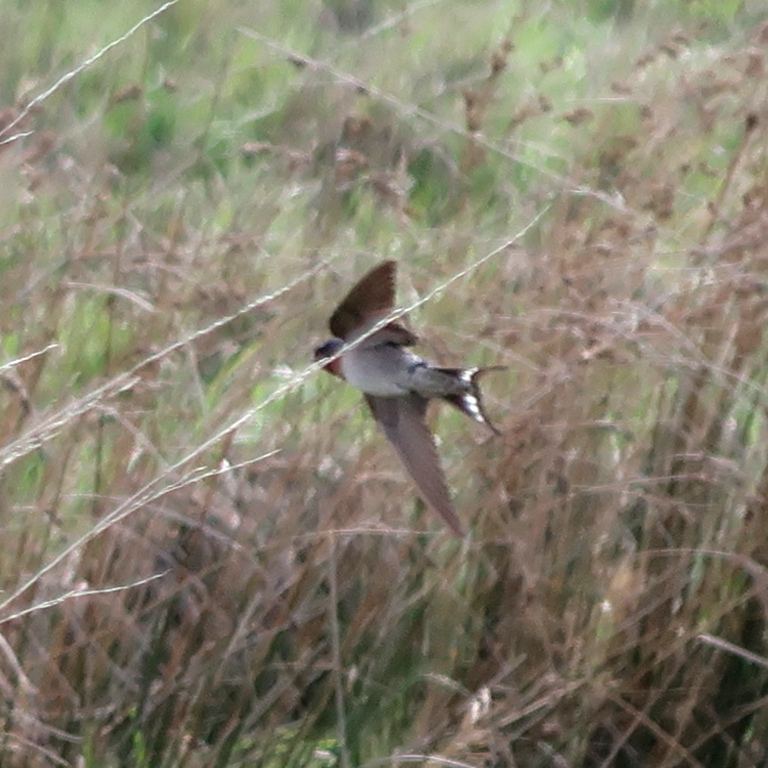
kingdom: Animalia
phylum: Chordata
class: Aves
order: Passeriformes
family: Hirundinidae
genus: Hirundo
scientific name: Hirundo neoxena
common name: Welcome swallow
